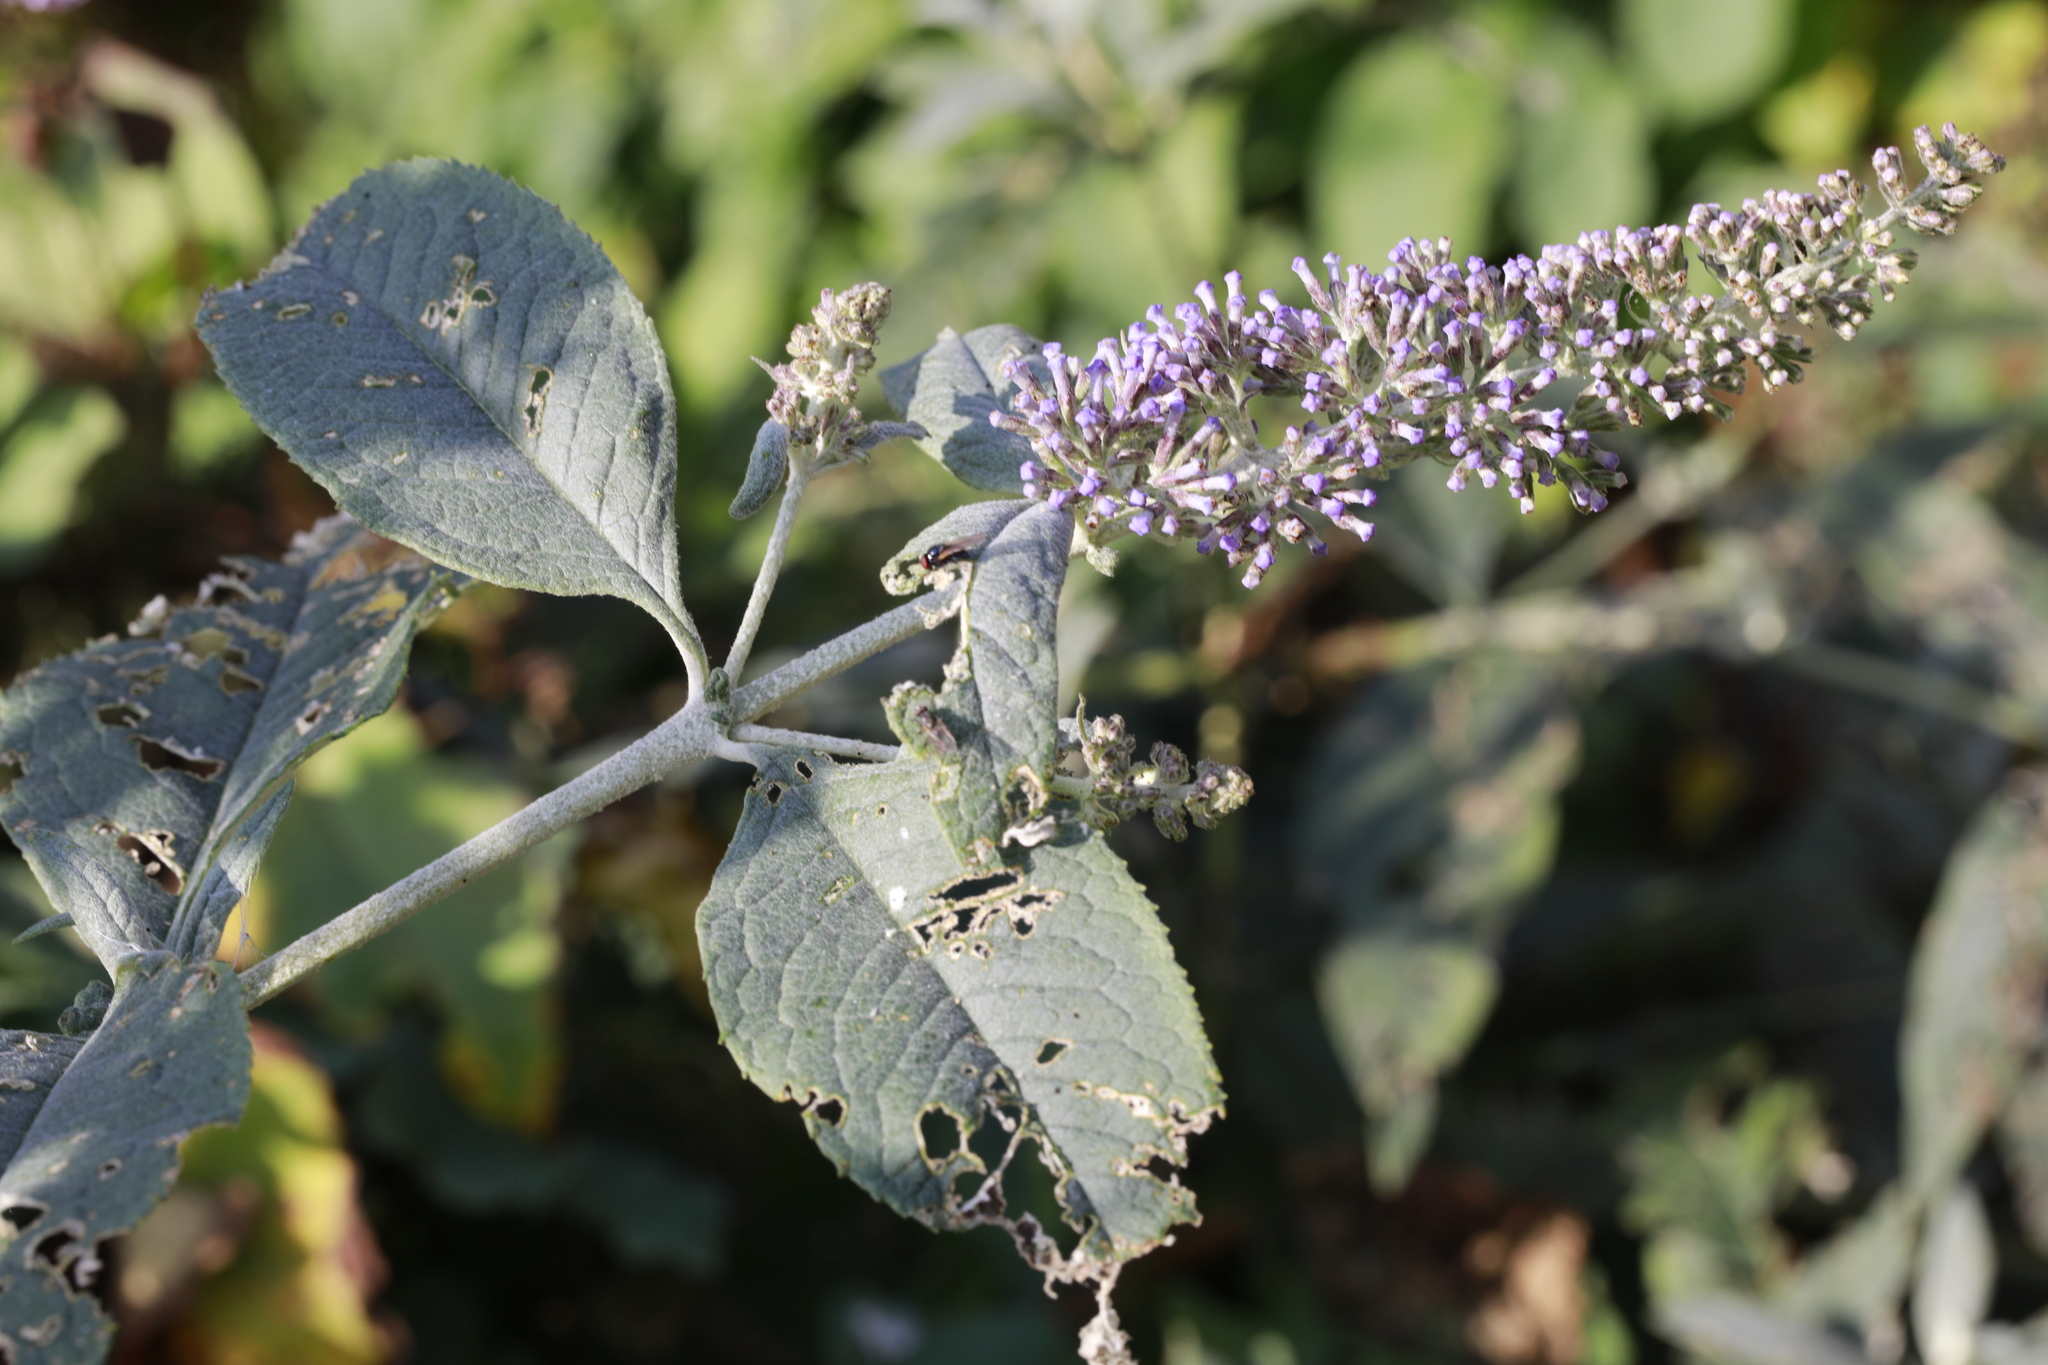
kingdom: Plantae
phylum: Tracheophyta
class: Magnoliopsida
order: Lamiales
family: Scrophulariaceae
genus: Buddleja
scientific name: Buddleja davidii
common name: Butterfly-bush
